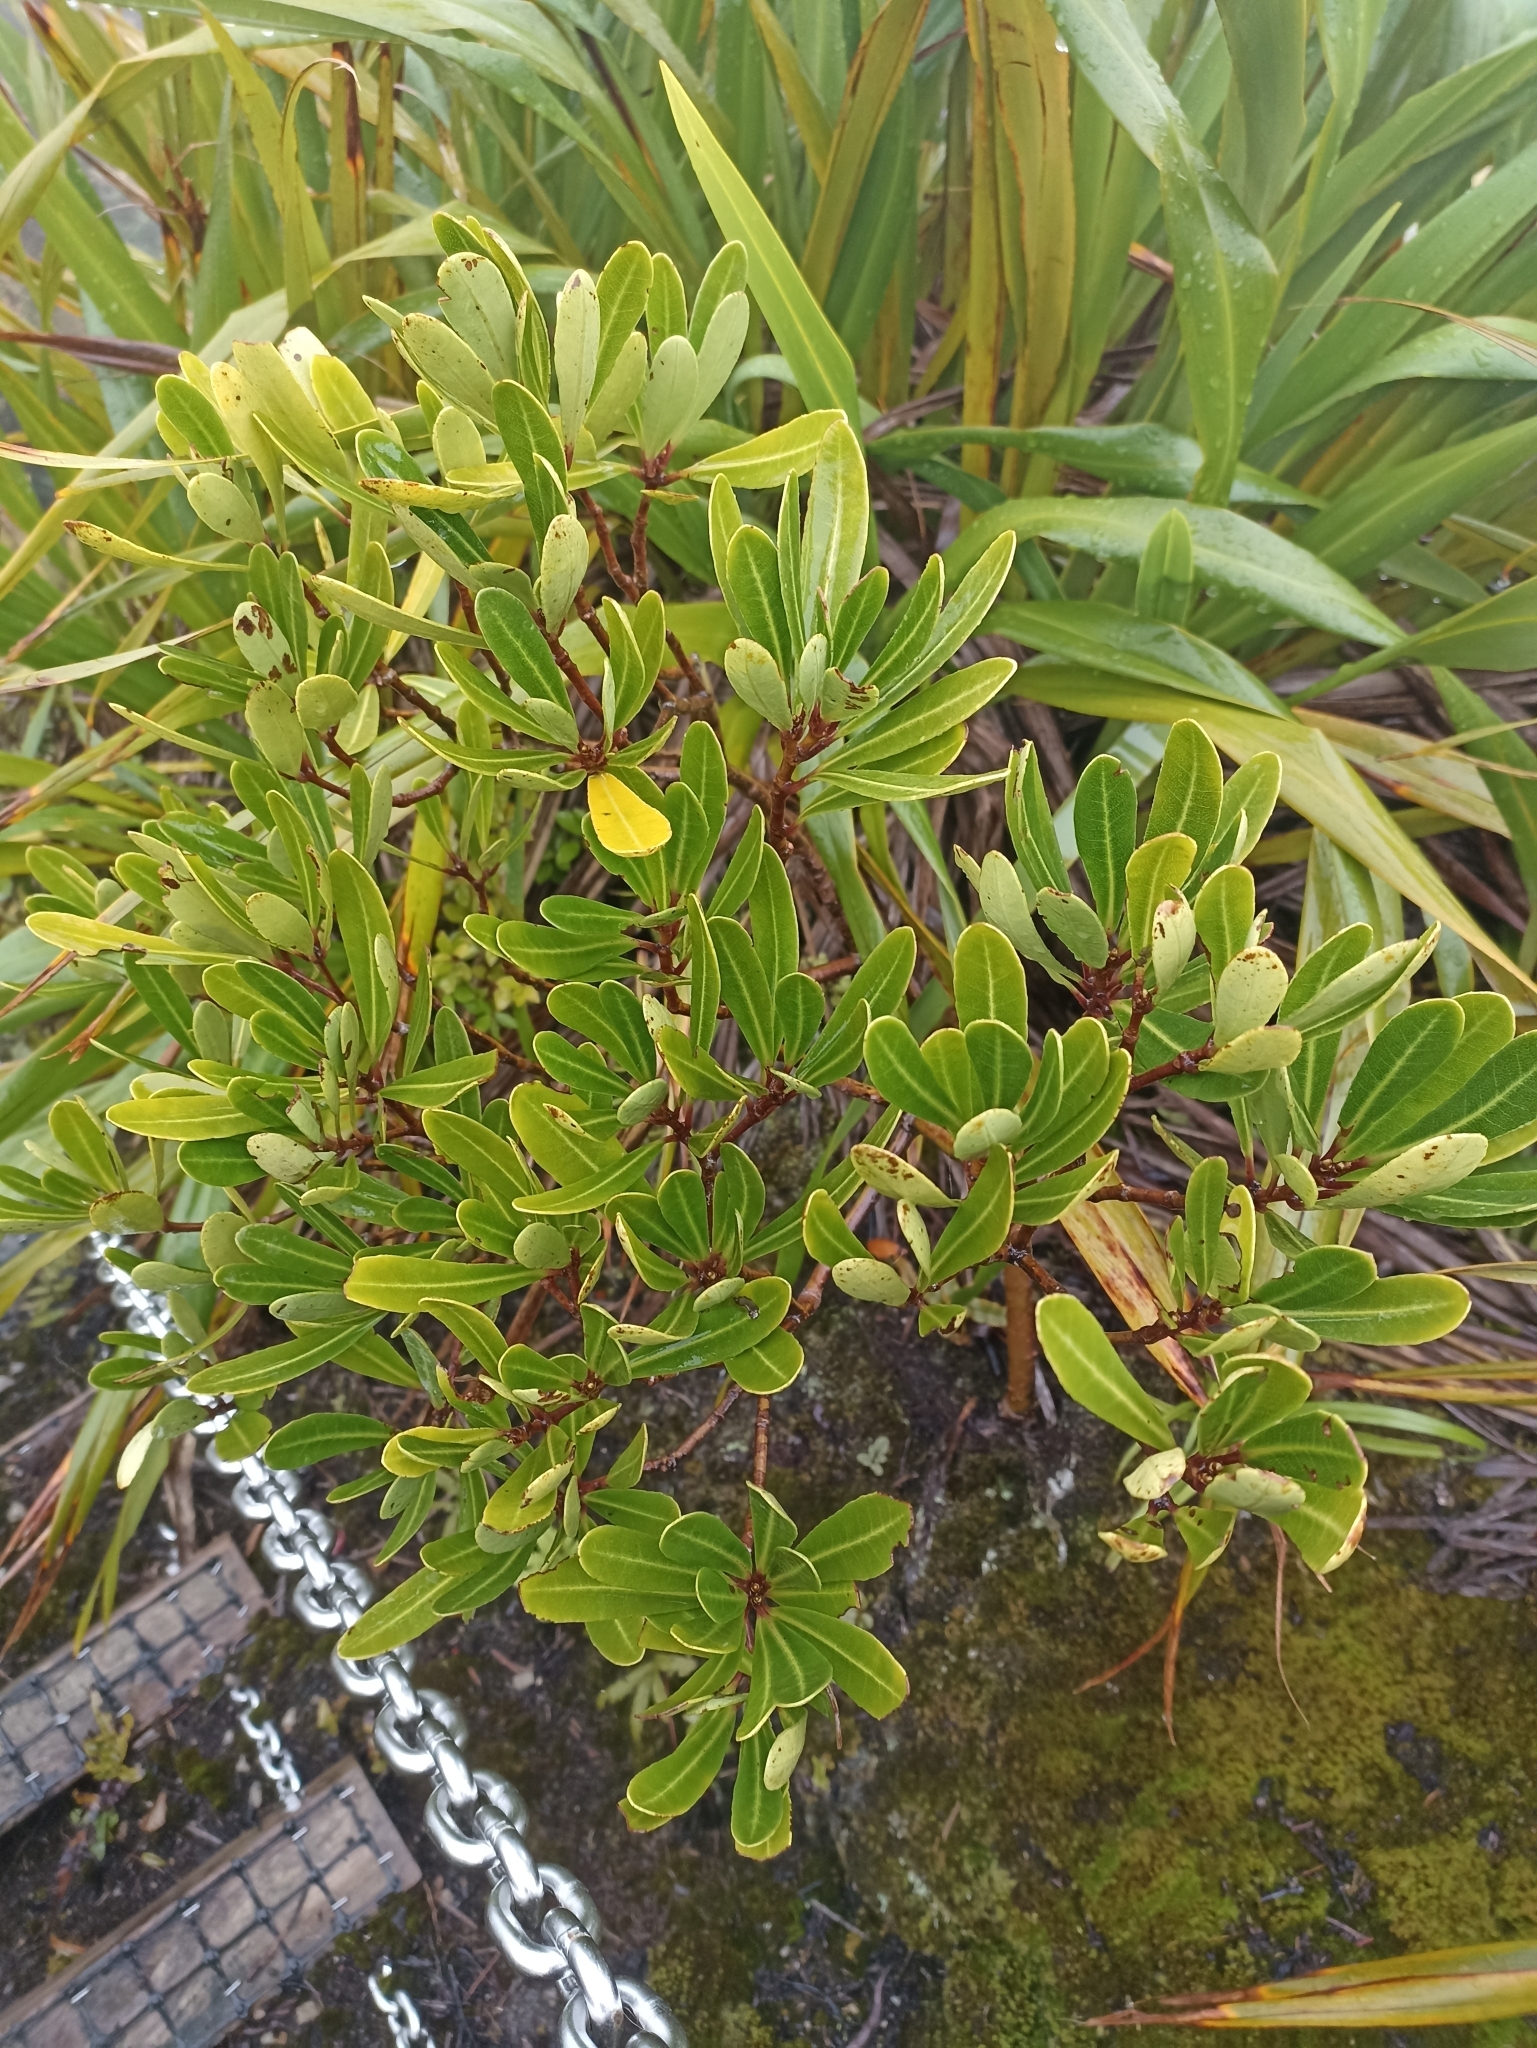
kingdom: Plantae
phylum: Tracheophyta
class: Magnoliopsida
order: Apiales
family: Pittosporaceae
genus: Pittosporum
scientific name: Pittosporum kirkii
